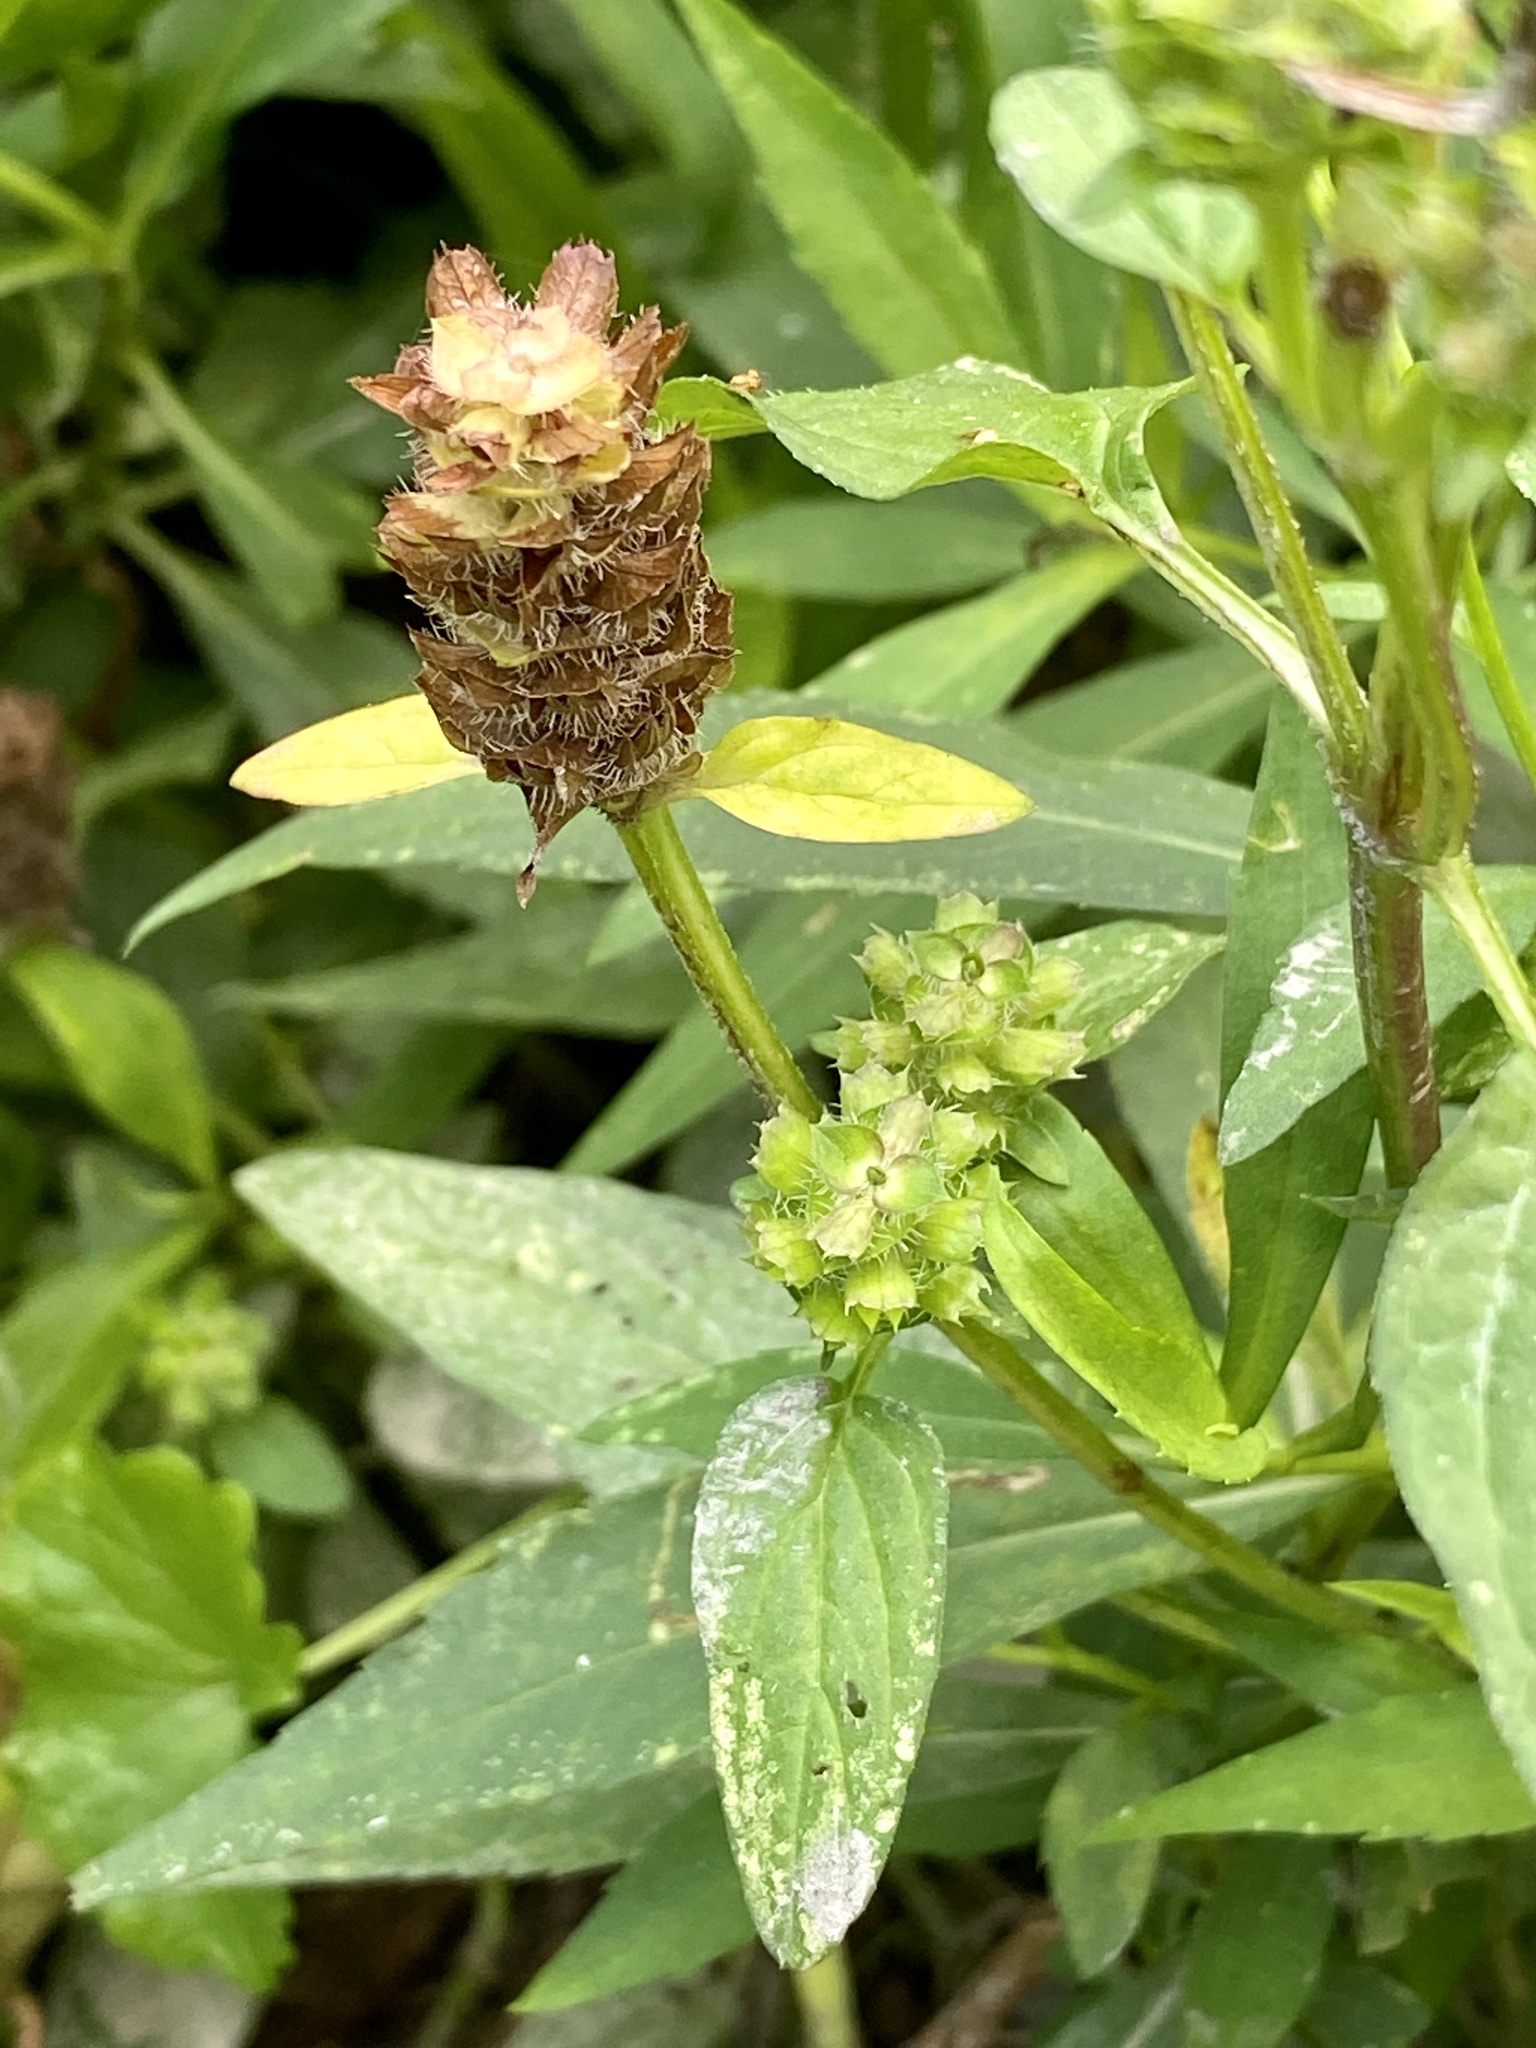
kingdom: Plantae
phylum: Tracheophyta
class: Magnoliopsida
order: Lamiales
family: Lamiaceae
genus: Prunella
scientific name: Prunella vulgaris
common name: Heal-all
